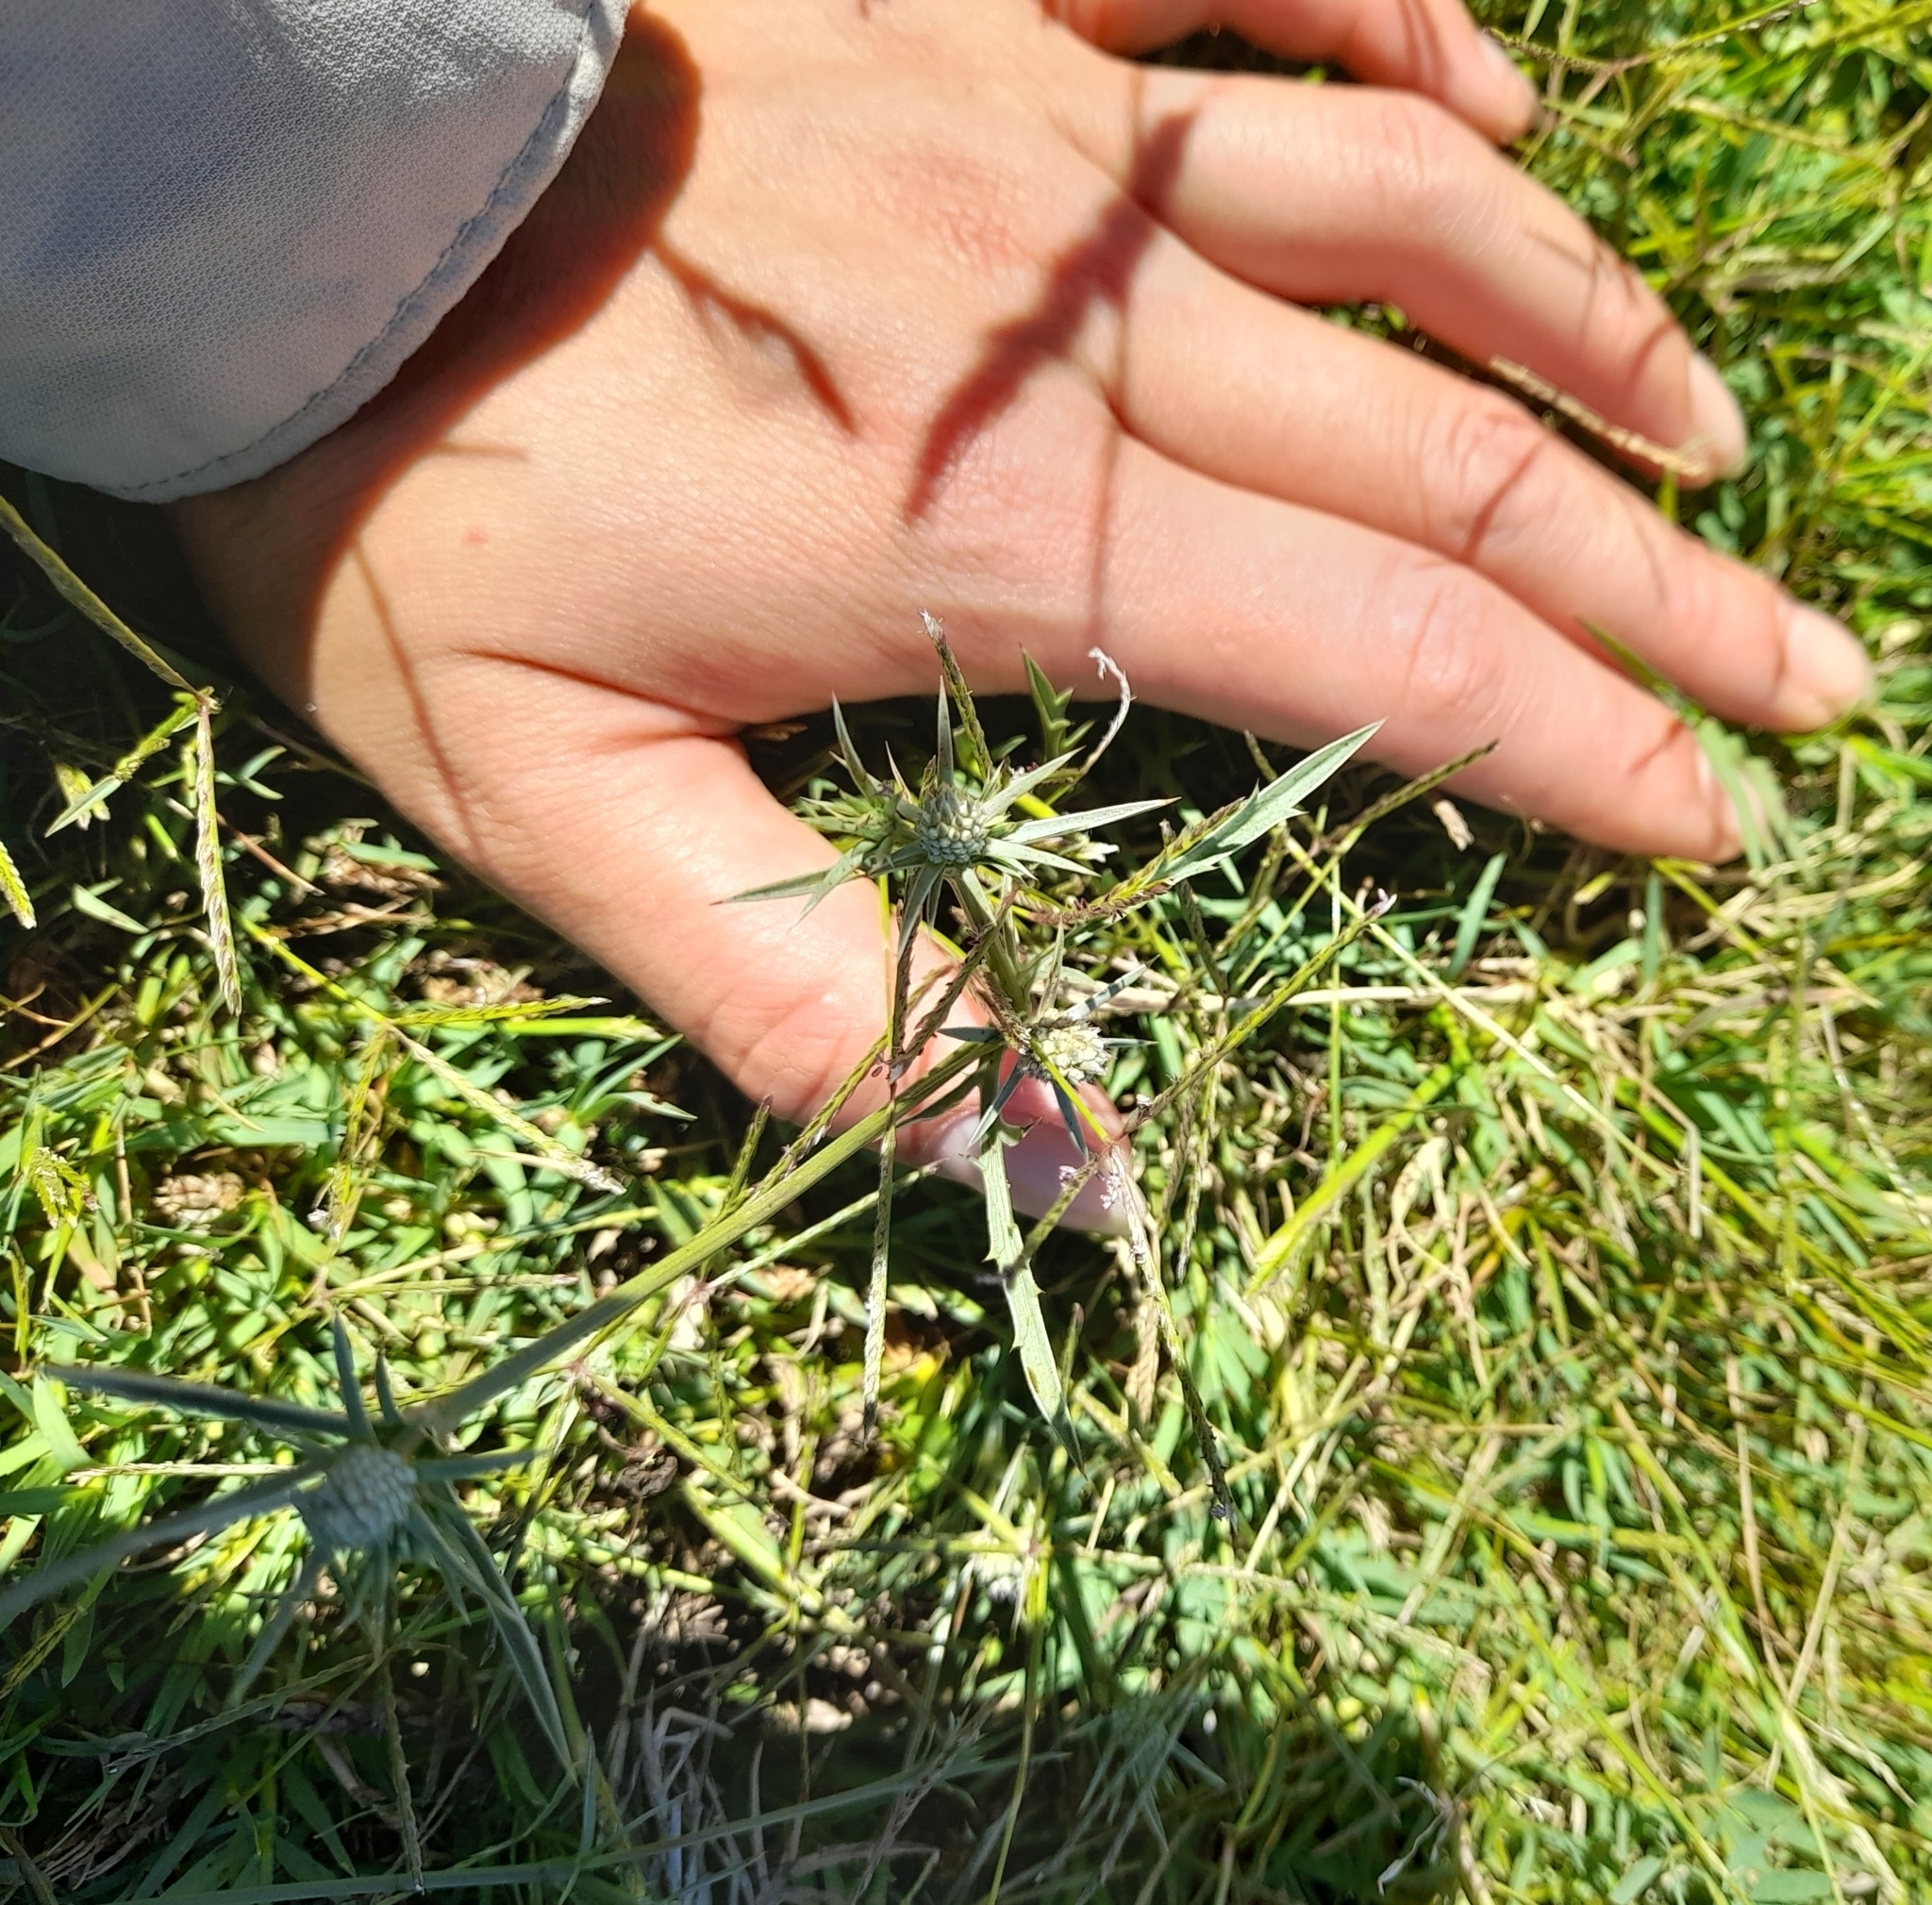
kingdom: Plantae
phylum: Tracheophyta
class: Magnoliopsida
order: Apiales
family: Apiaceae
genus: Eryngium
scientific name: Eryngium echinatum
